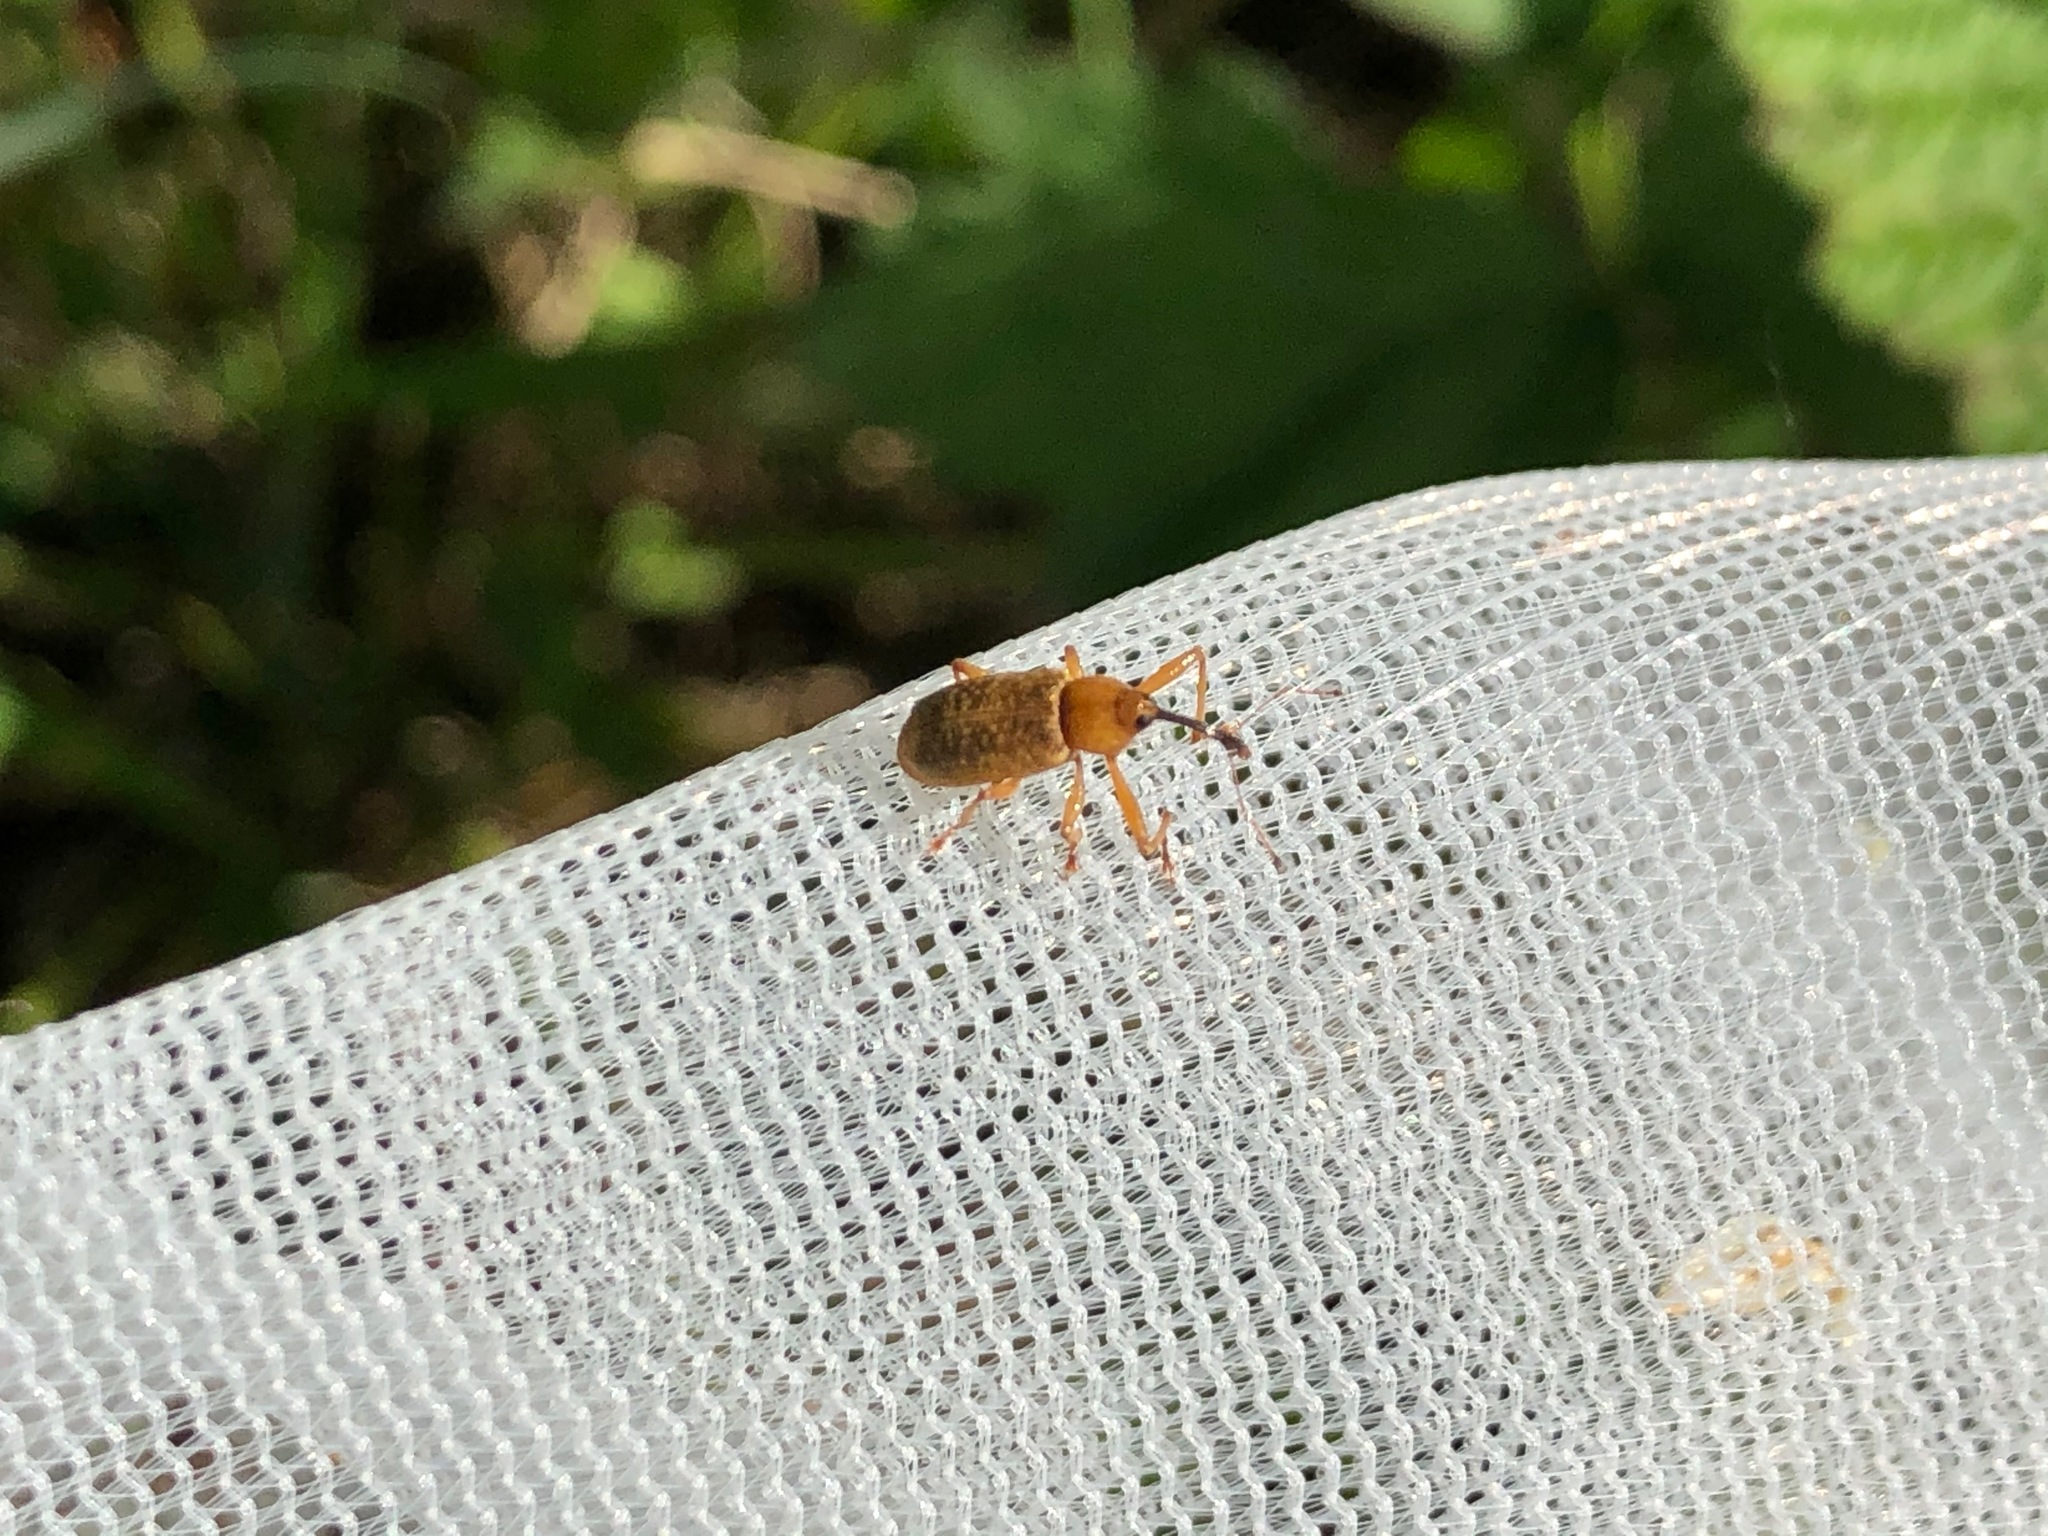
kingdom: Animalia
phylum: Arthropoda
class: Insecta
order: Coleoptera
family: Curculionidae
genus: Dorytomus
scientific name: Dorytomus longimanus
